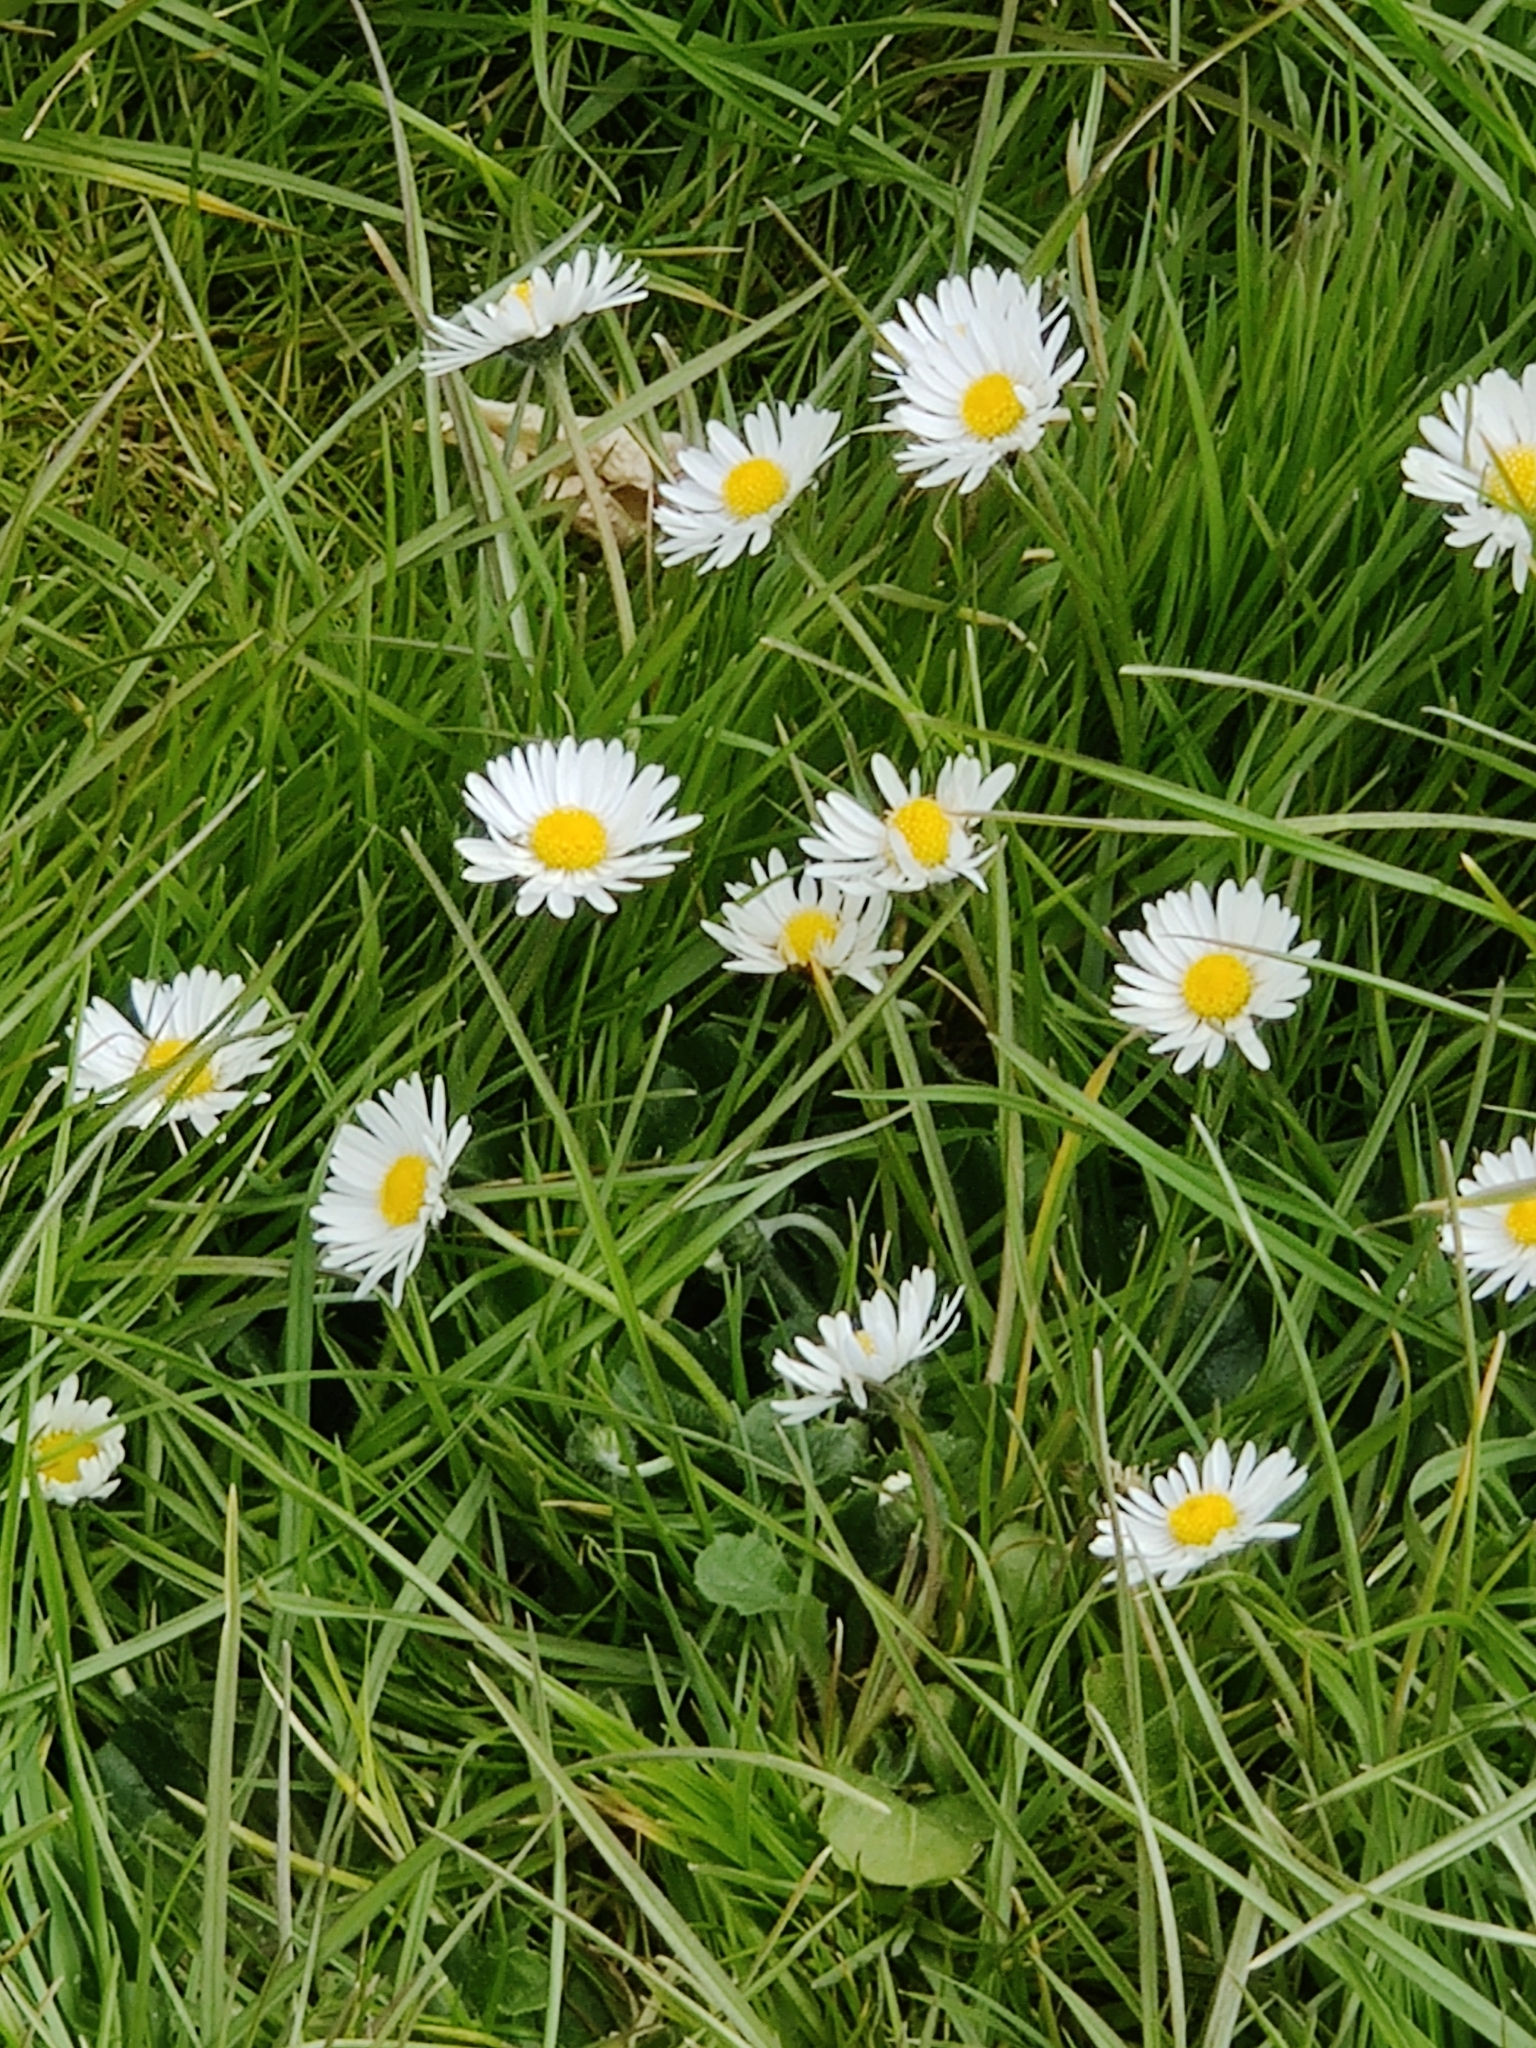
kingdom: Plantae
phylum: Tracheophyta
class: Magnoliopsida
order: Asterales
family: Asteraceae
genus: Bellis
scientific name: Bellis perennis
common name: Lawndaisy
